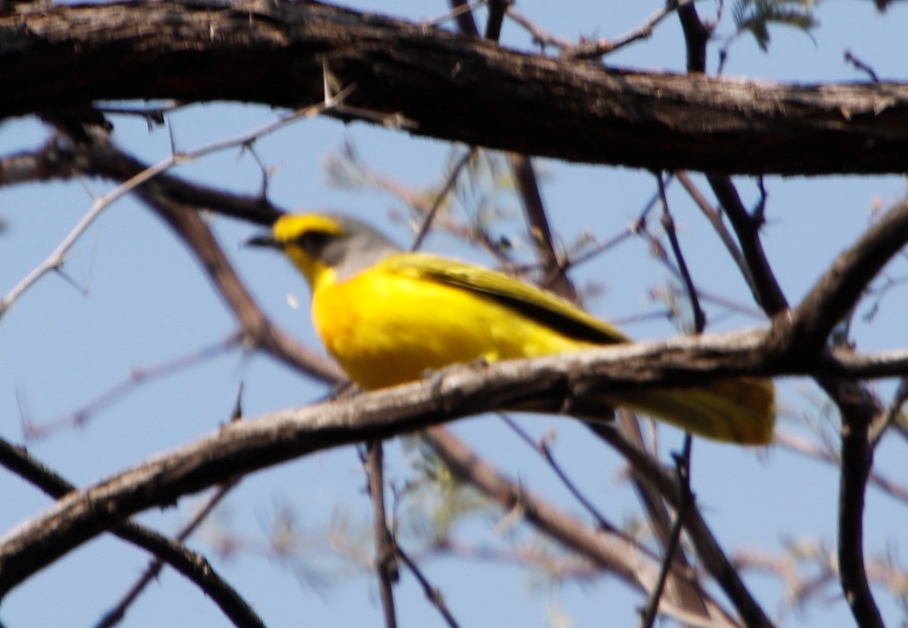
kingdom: Animalia
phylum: Chordata
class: Aves
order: Passeriformes
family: Malaconotidae
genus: Chlorophoneus
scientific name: Chlorophoneus sulfureopectus
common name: Orange-breasted bushshrike
